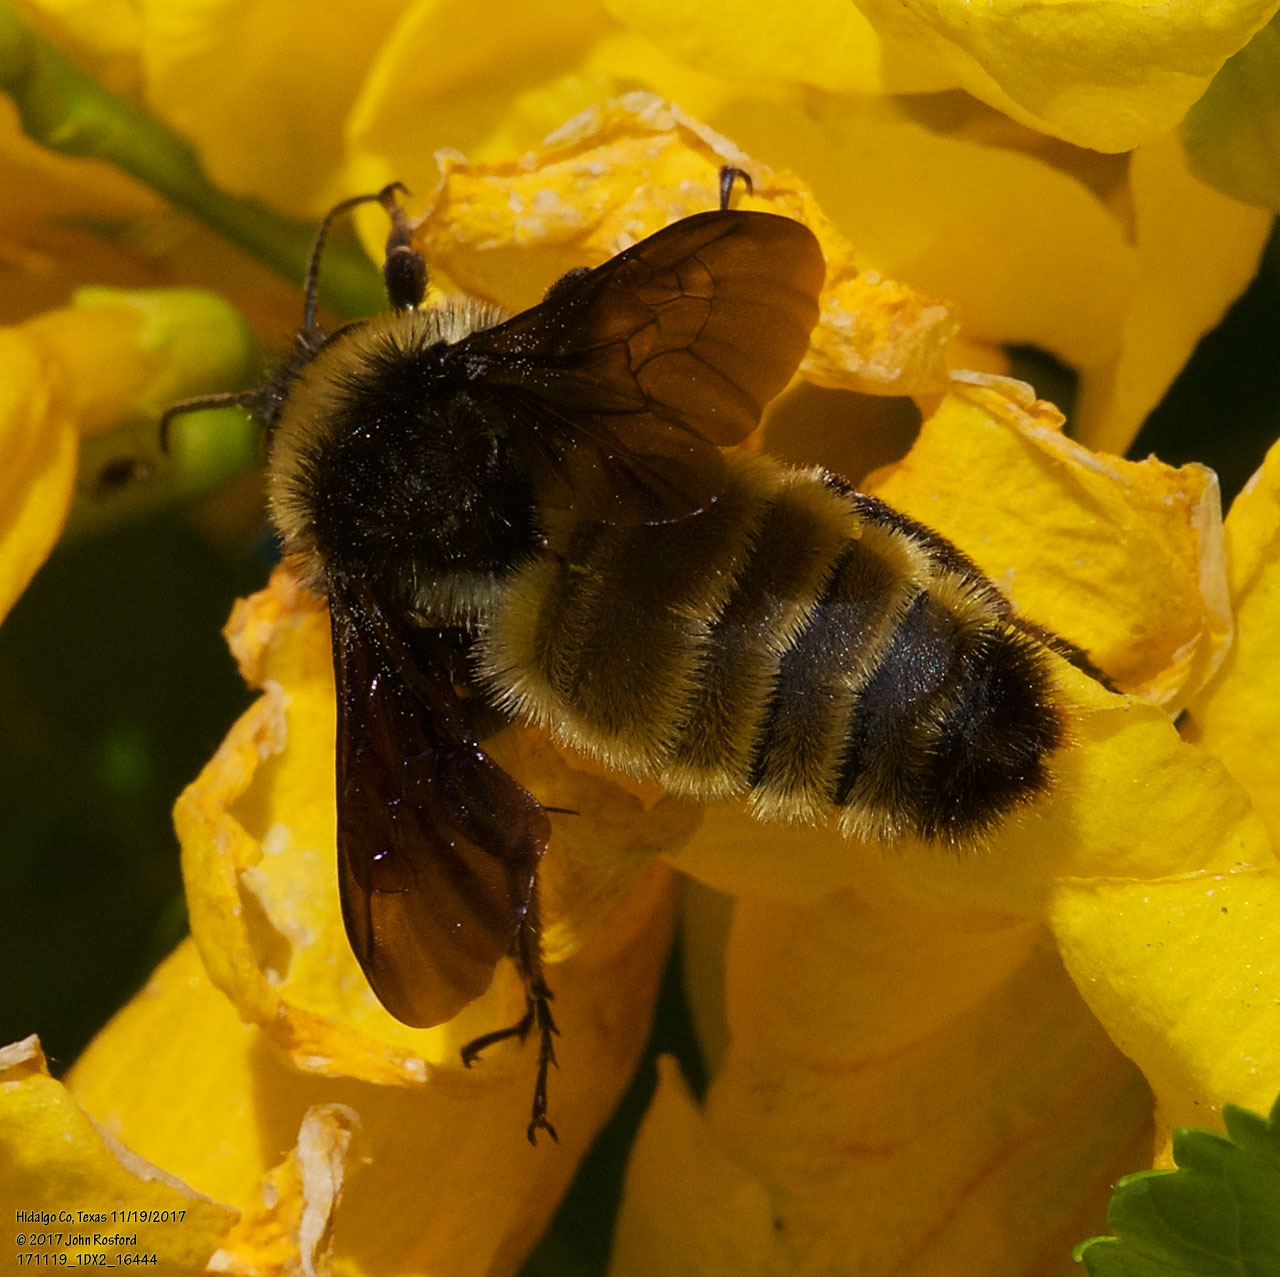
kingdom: Animalia
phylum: Arthropoda
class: Insecta
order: Hymenoptera
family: Apidae
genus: Bombus
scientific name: Bombus pensylvanicus
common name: Bumble bee
